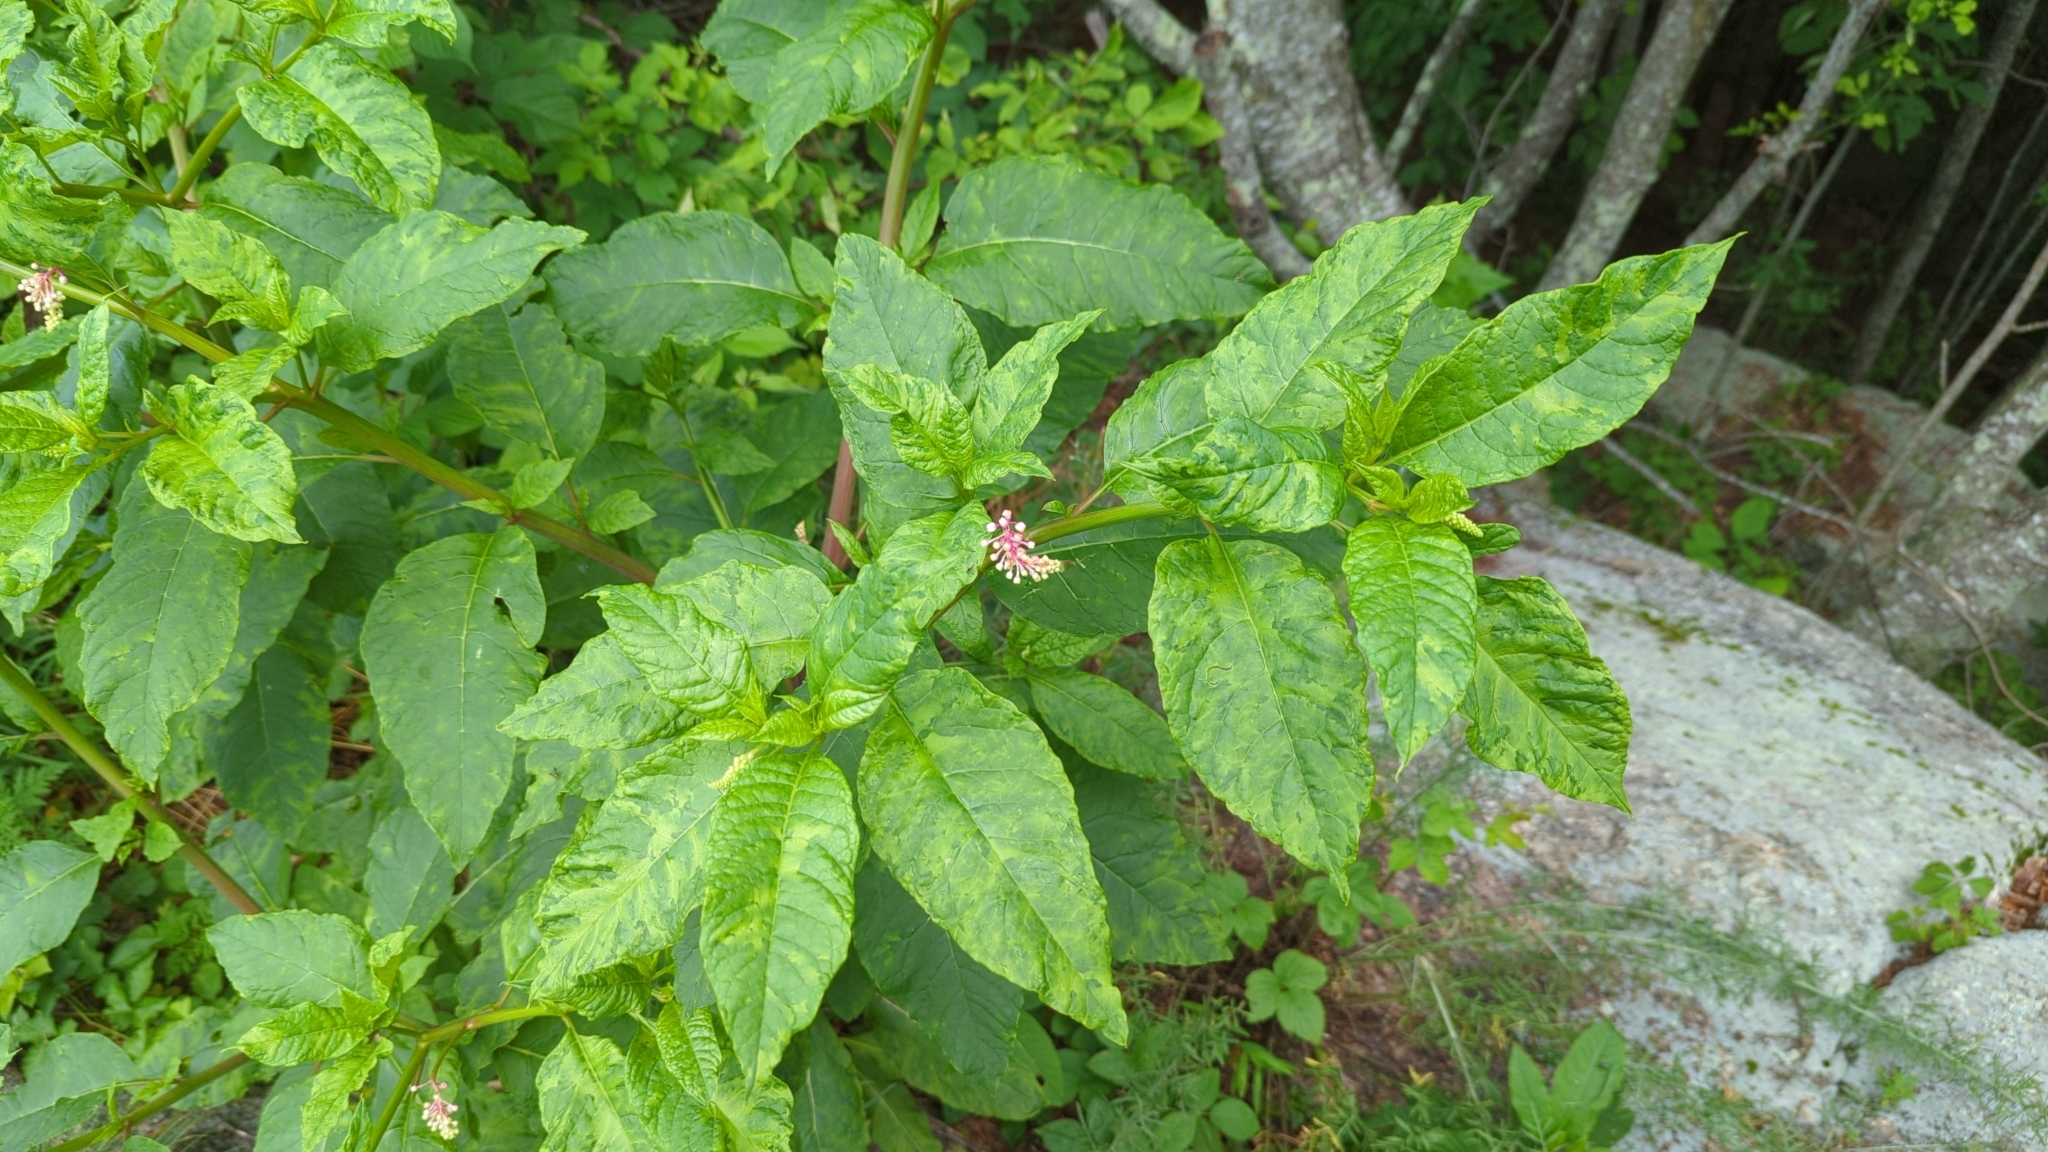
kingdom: Plantae
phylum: Tracheophyta
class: Magnoliopsida
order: Caryophyllales
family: Phytolaccaceae
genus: Phytolacca
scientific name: Phytolacca americana
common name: American pokeweed
